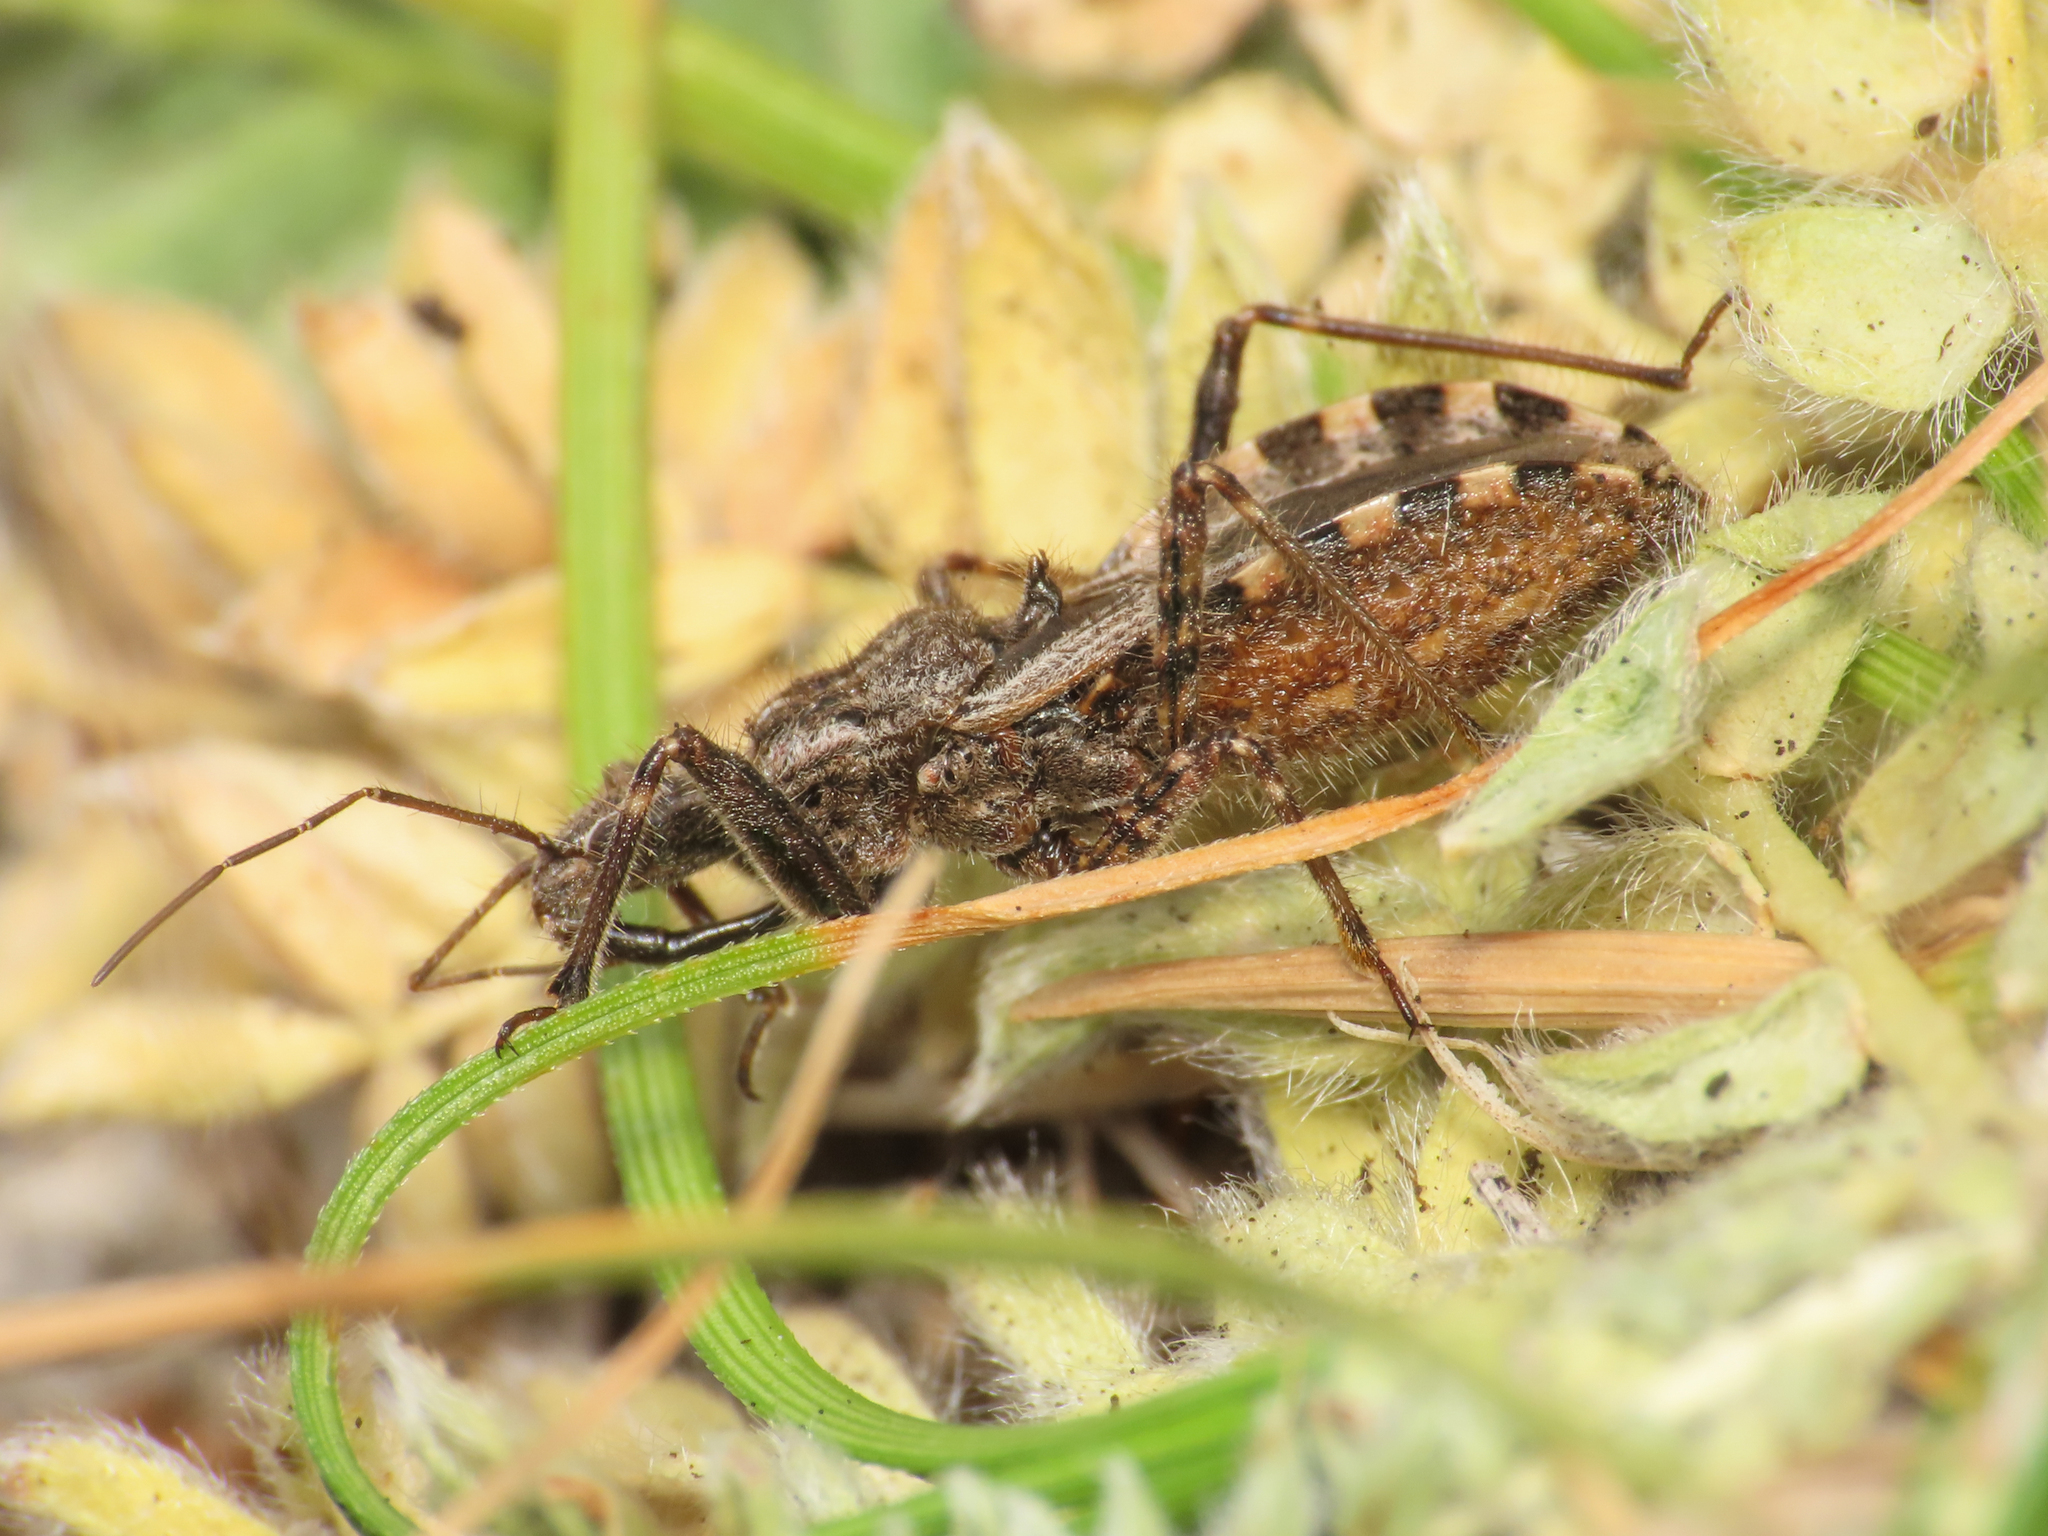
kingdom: Animalia
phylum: Arthropoda
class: Insecta
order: Hemiptera
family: Reduviidae
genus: Coranus
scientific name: Coranus tuberculifer
